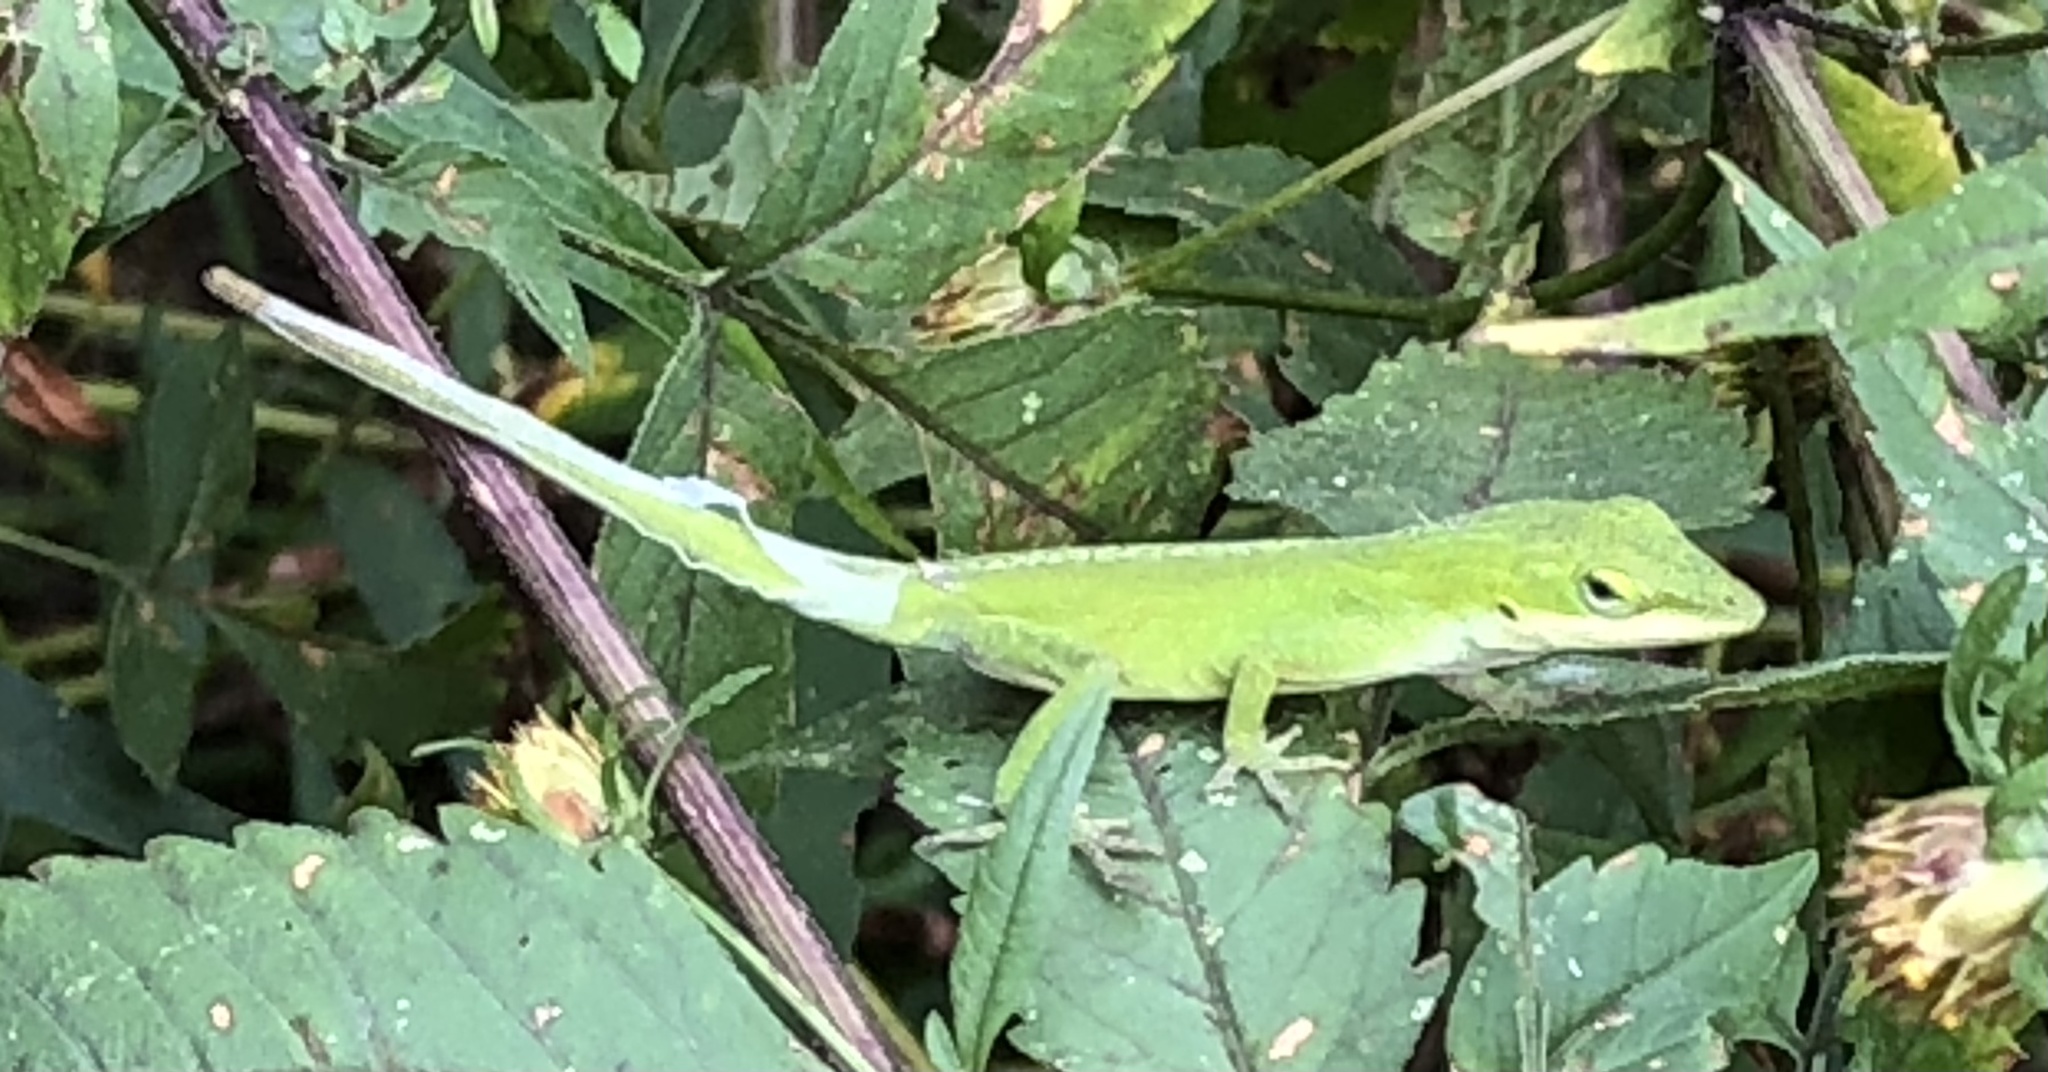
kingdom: Animalia
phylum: Chordata
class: Squamata
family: Dactyloidae
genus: Anolis
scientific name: Anolis carolinensis
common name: Green anole
